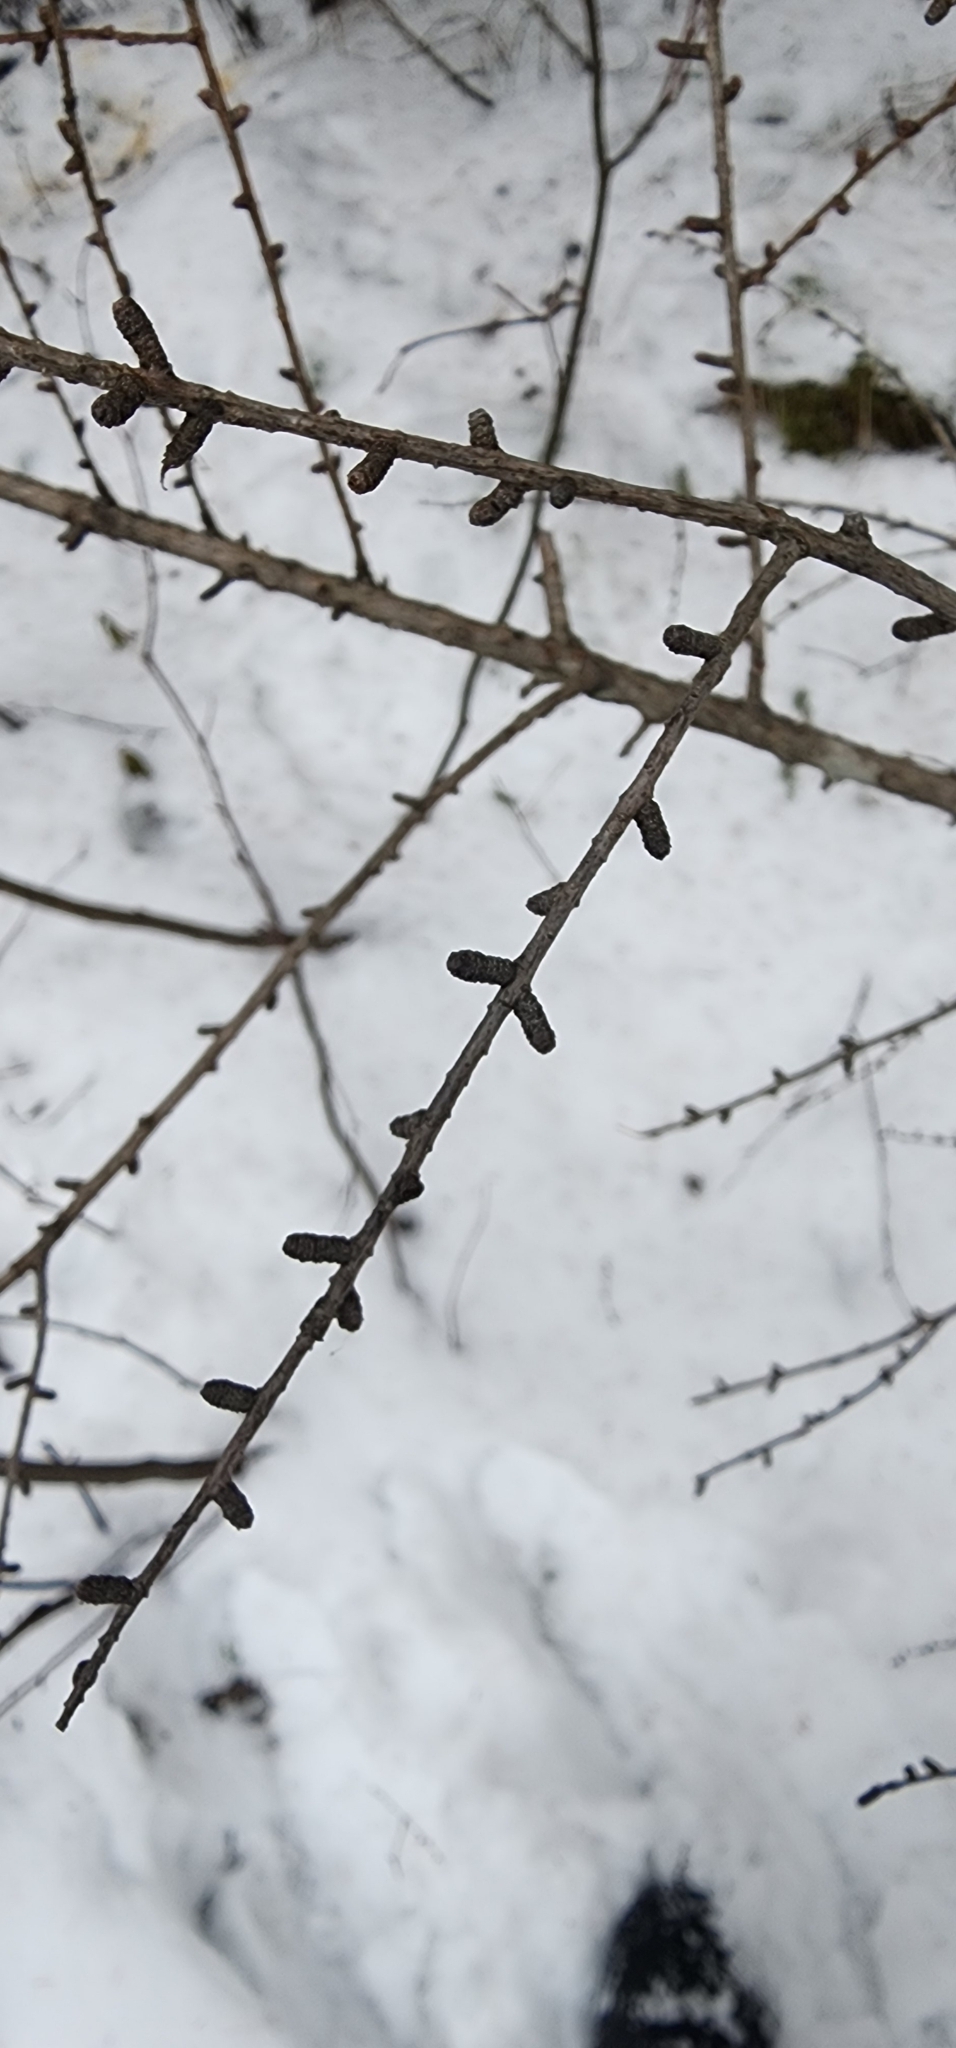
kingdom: Plantae
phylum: Tracheophyta
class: Pinopsida
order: Pinales
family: Pinaceae
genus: Larix
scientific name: Larix laricina
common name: American larch
